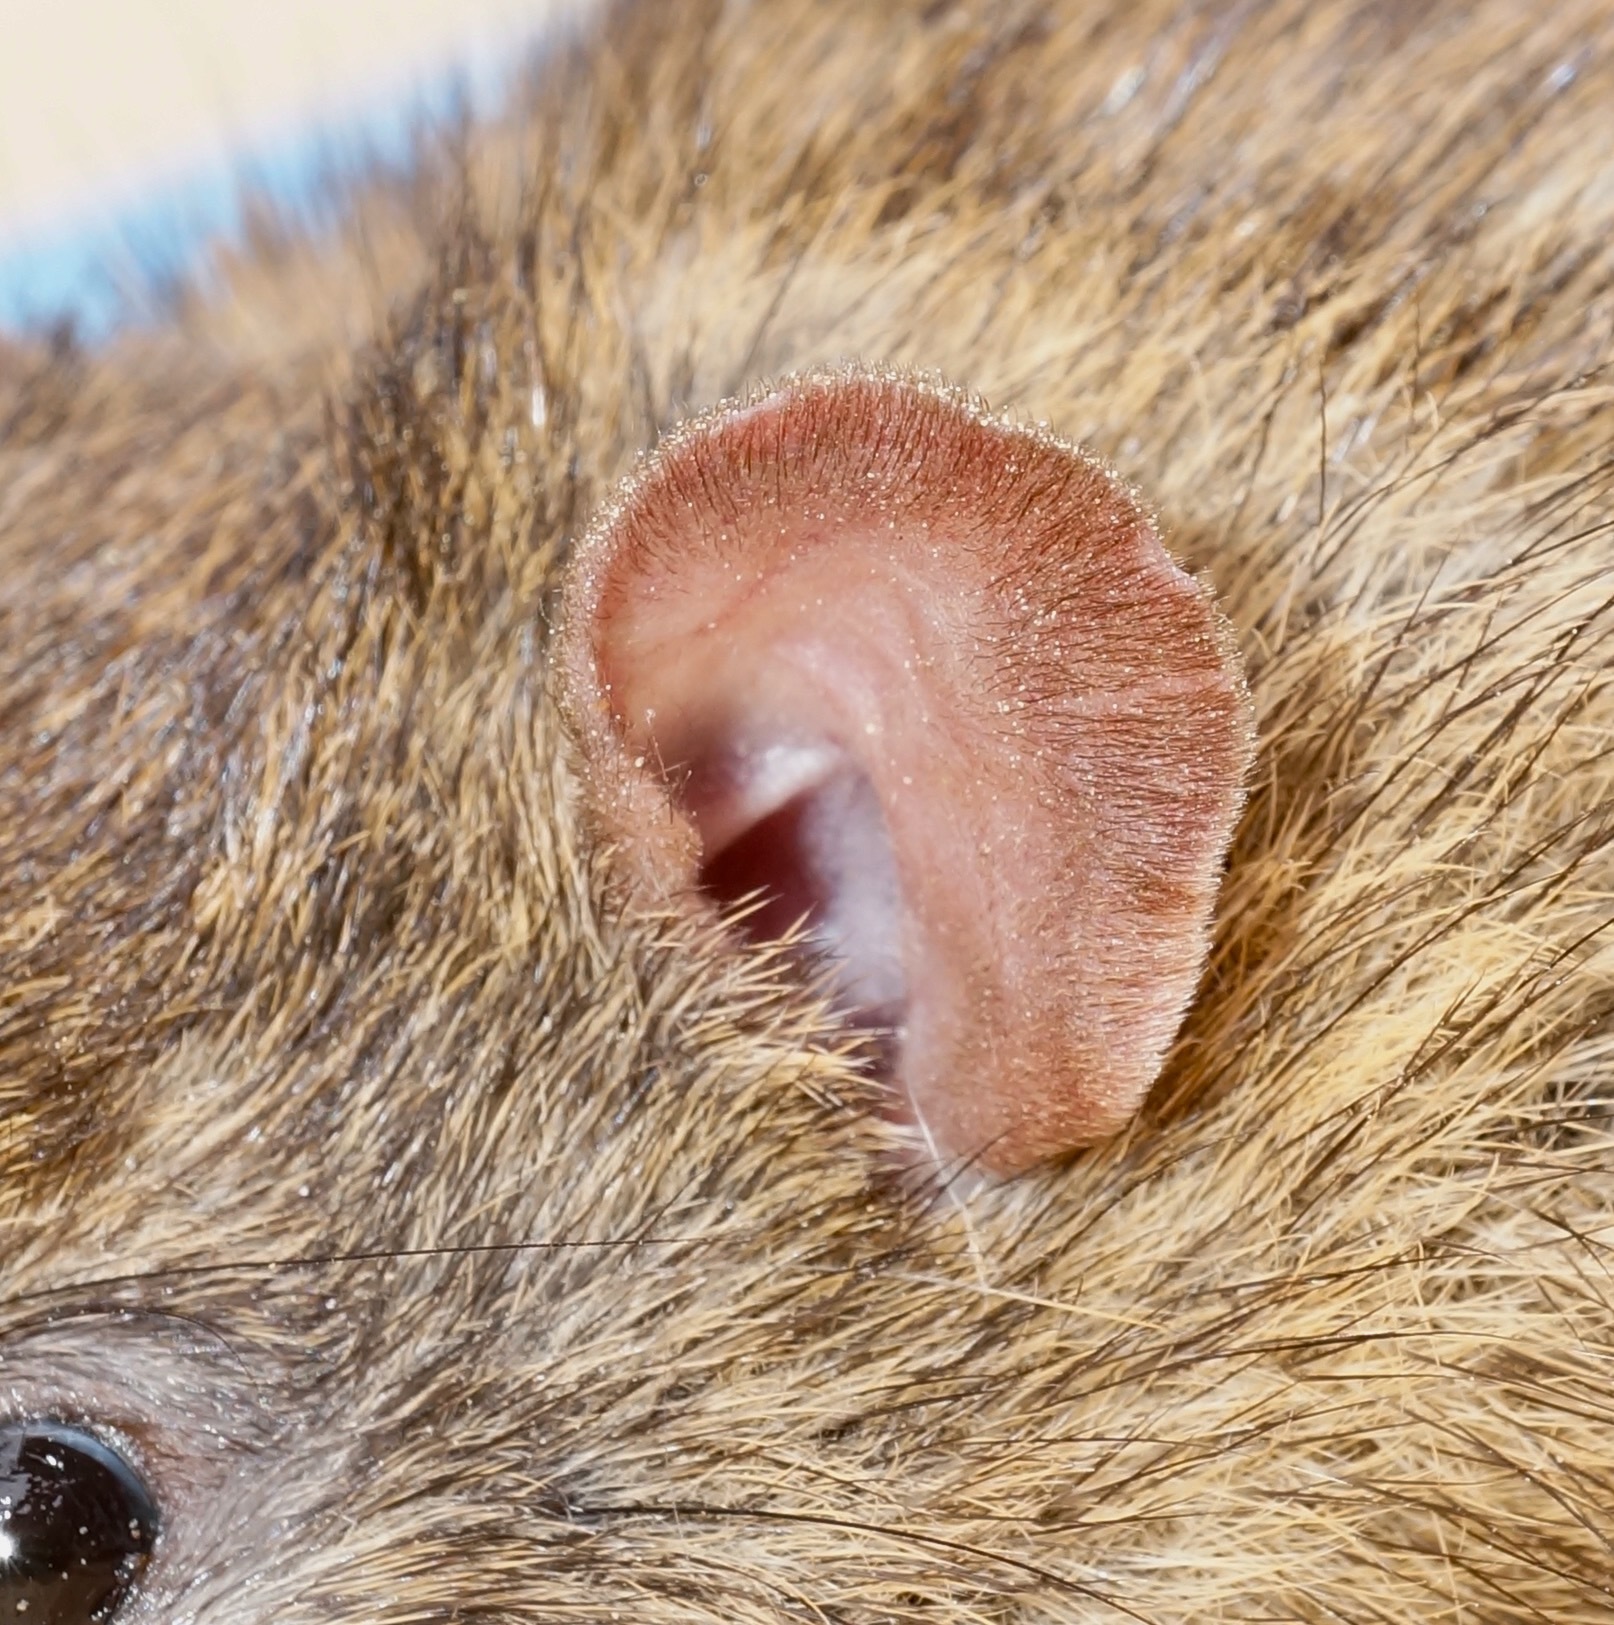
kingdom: Animalia
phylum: Chordata
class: Mammalia
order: Rodentia
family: Muridae
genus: Rattus
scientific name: Rattus norvegicus
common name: Brown rat
